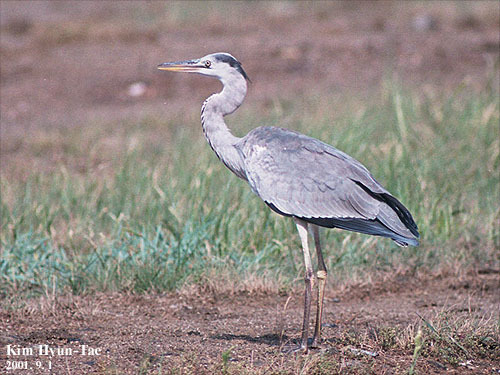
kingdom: Animalia
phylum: Chordata
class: Aves
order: Pelecaniformes
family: Ardeidae
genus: Ardea
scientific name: Ardea cinerea
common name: Grey heron
